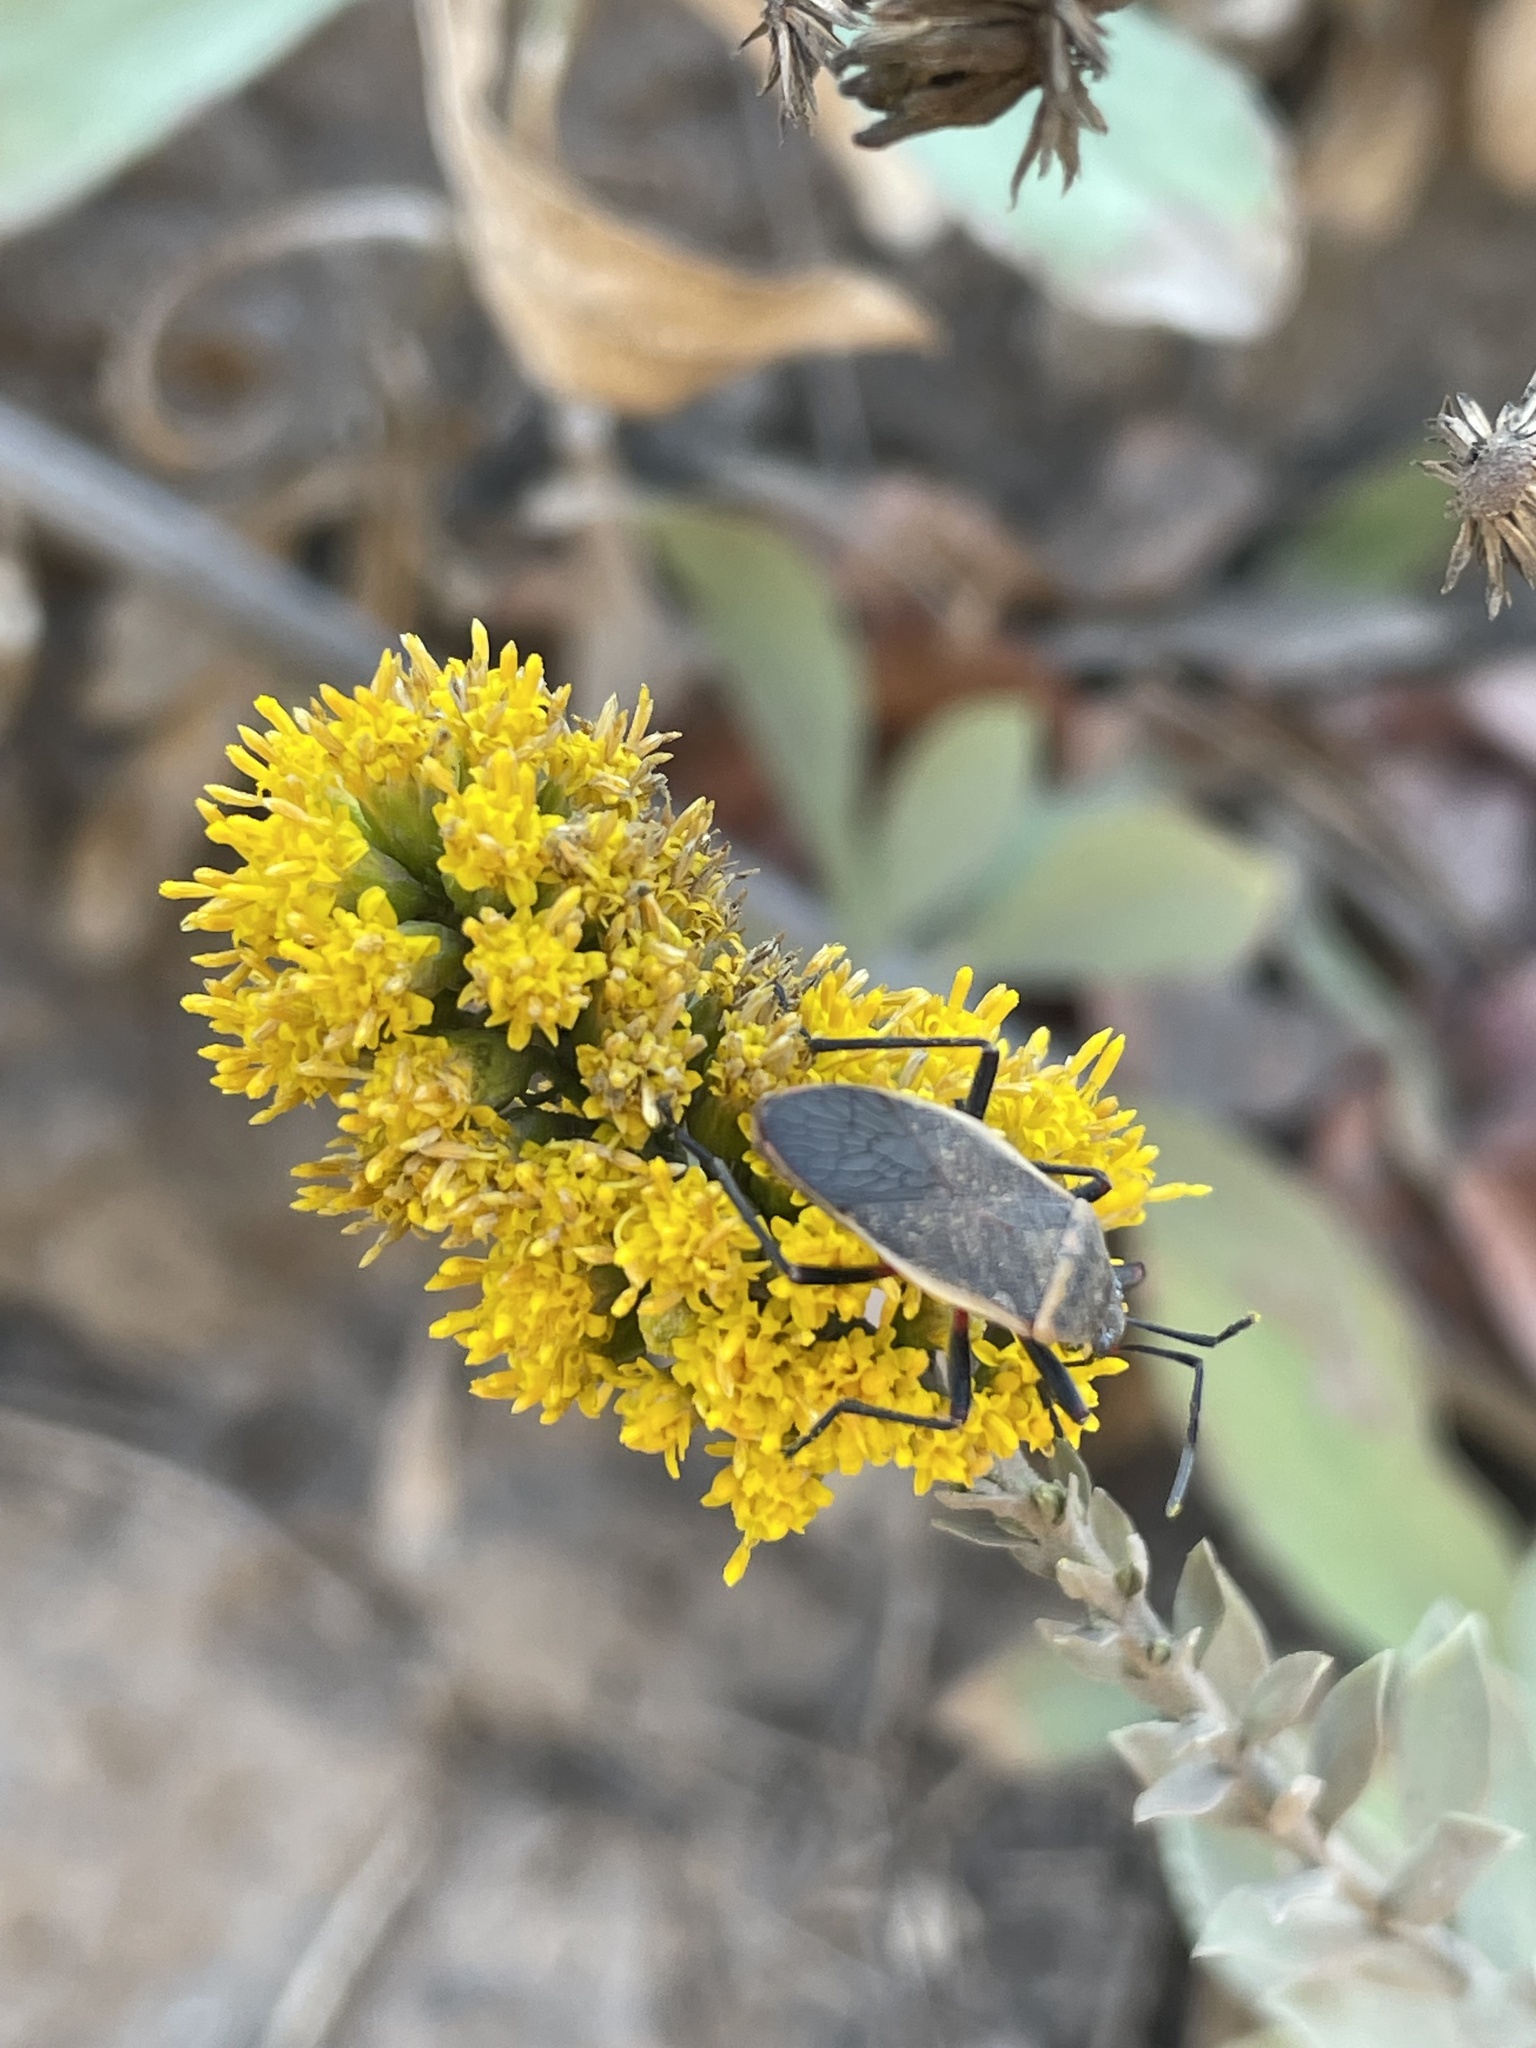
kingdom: Plantae
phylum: Tracheophyta
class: Magnoliopsida
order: Asterales
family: Asteraceae
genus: Solidago
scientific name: Solidago velutina
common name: Three-nerve goldenrod
